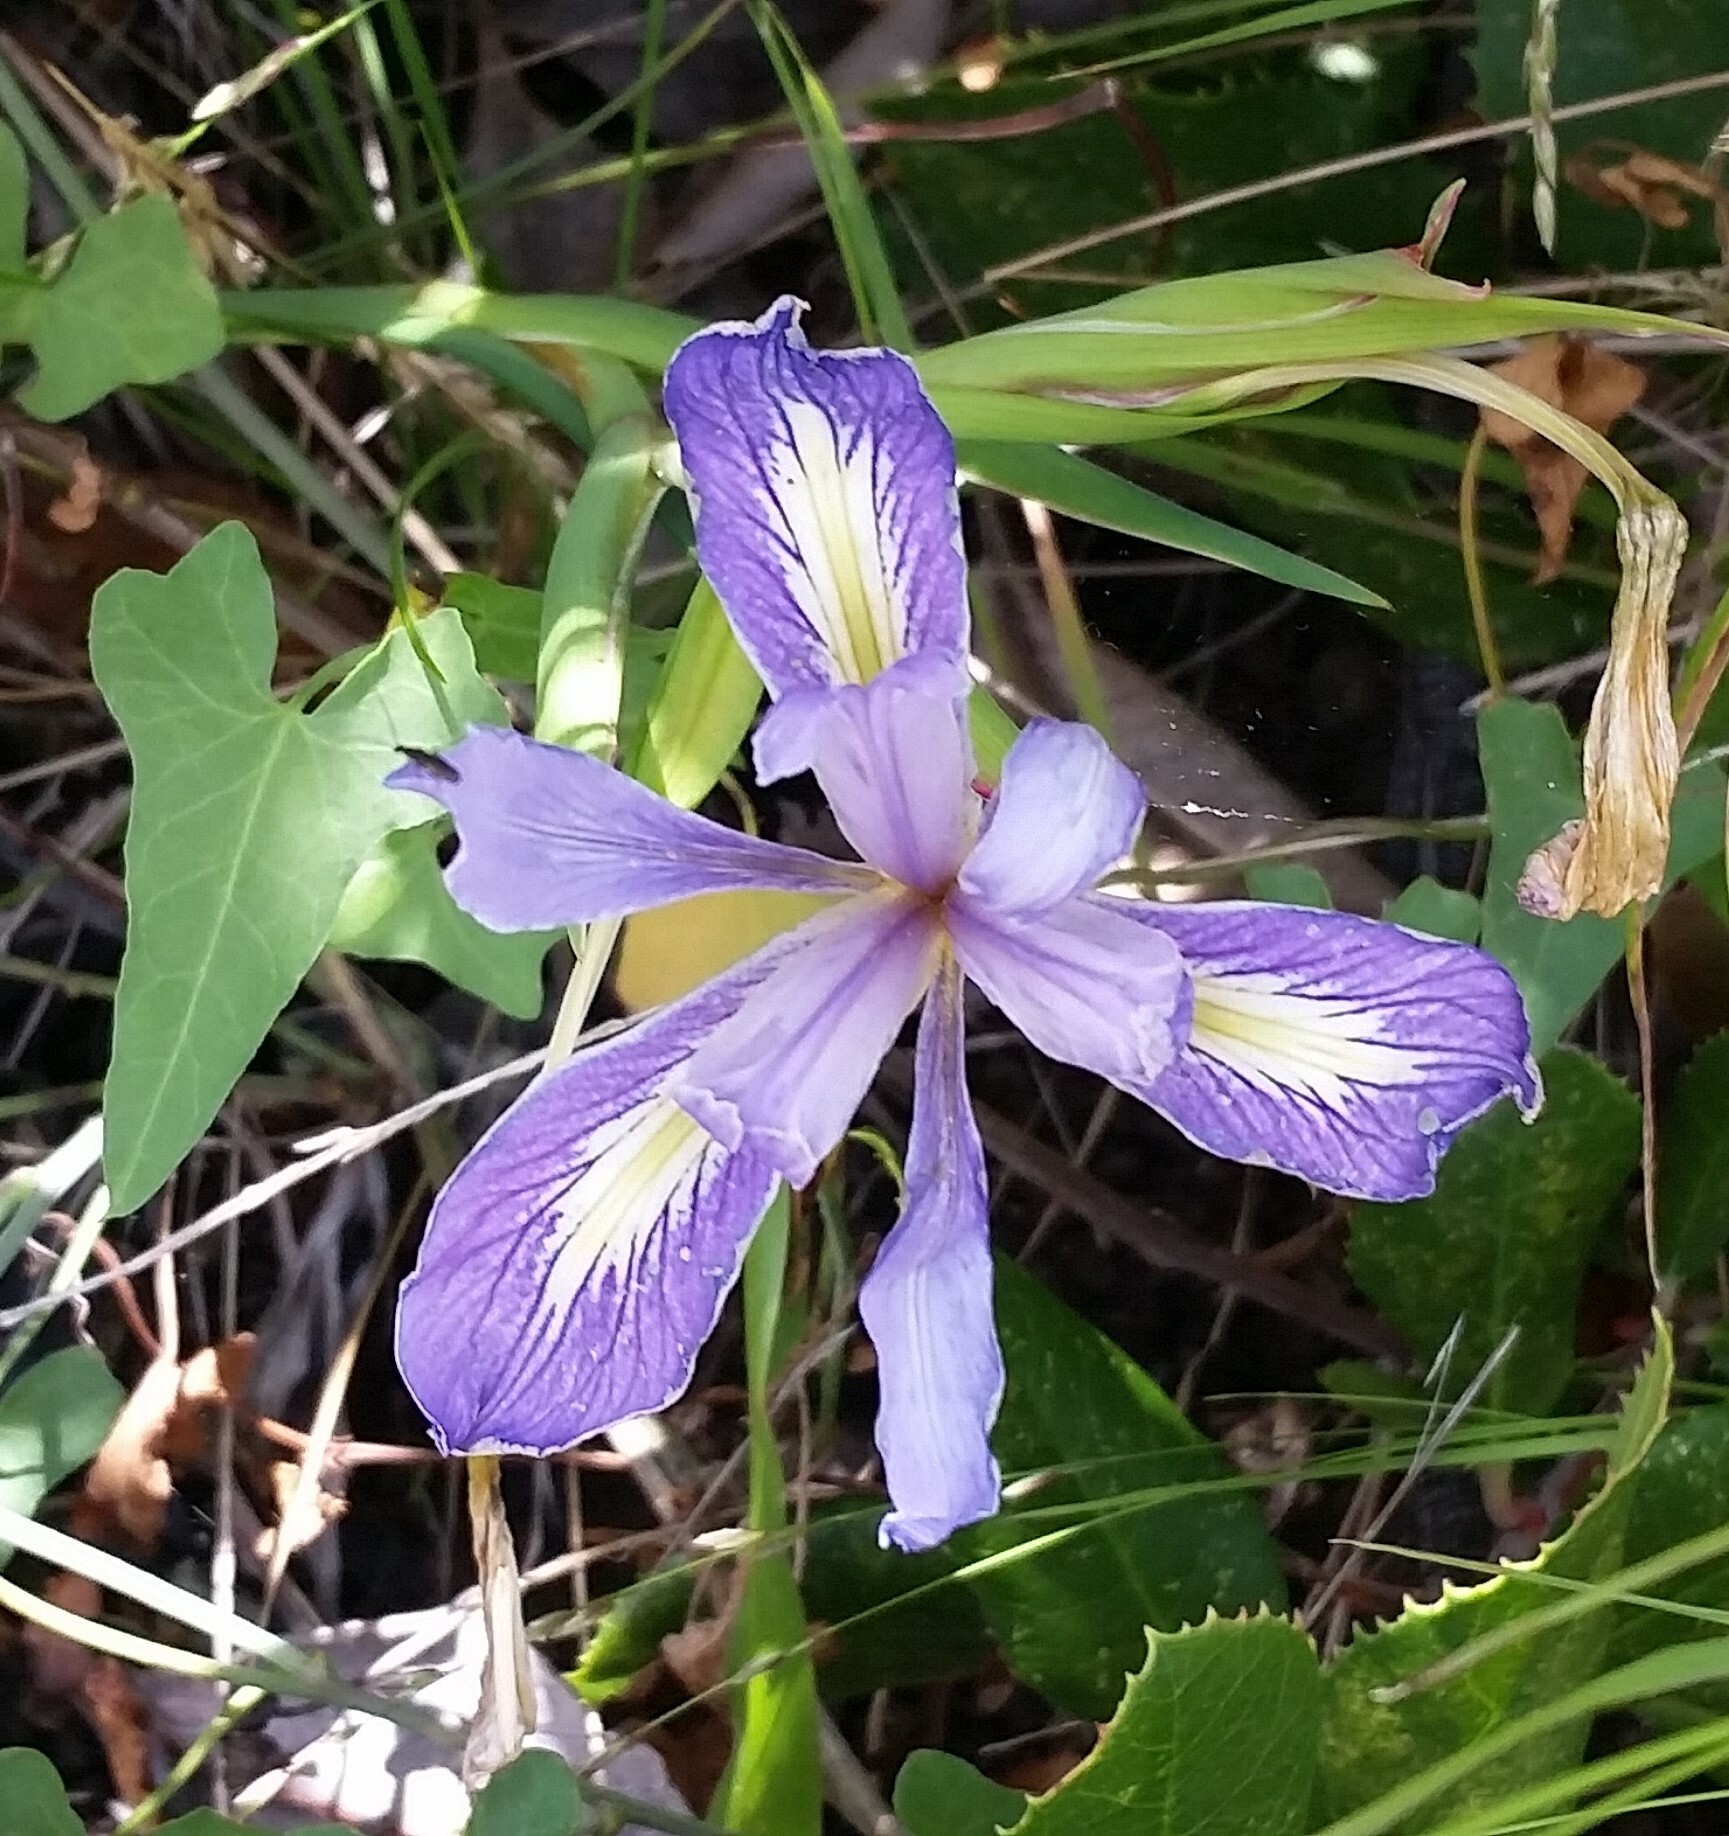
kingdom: Plantae
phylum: Tracheophyta
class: Liliopsida
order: Asparagales
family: Iridaceae
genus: Iris
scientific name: Iris macrosiphon
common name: Ground iris
